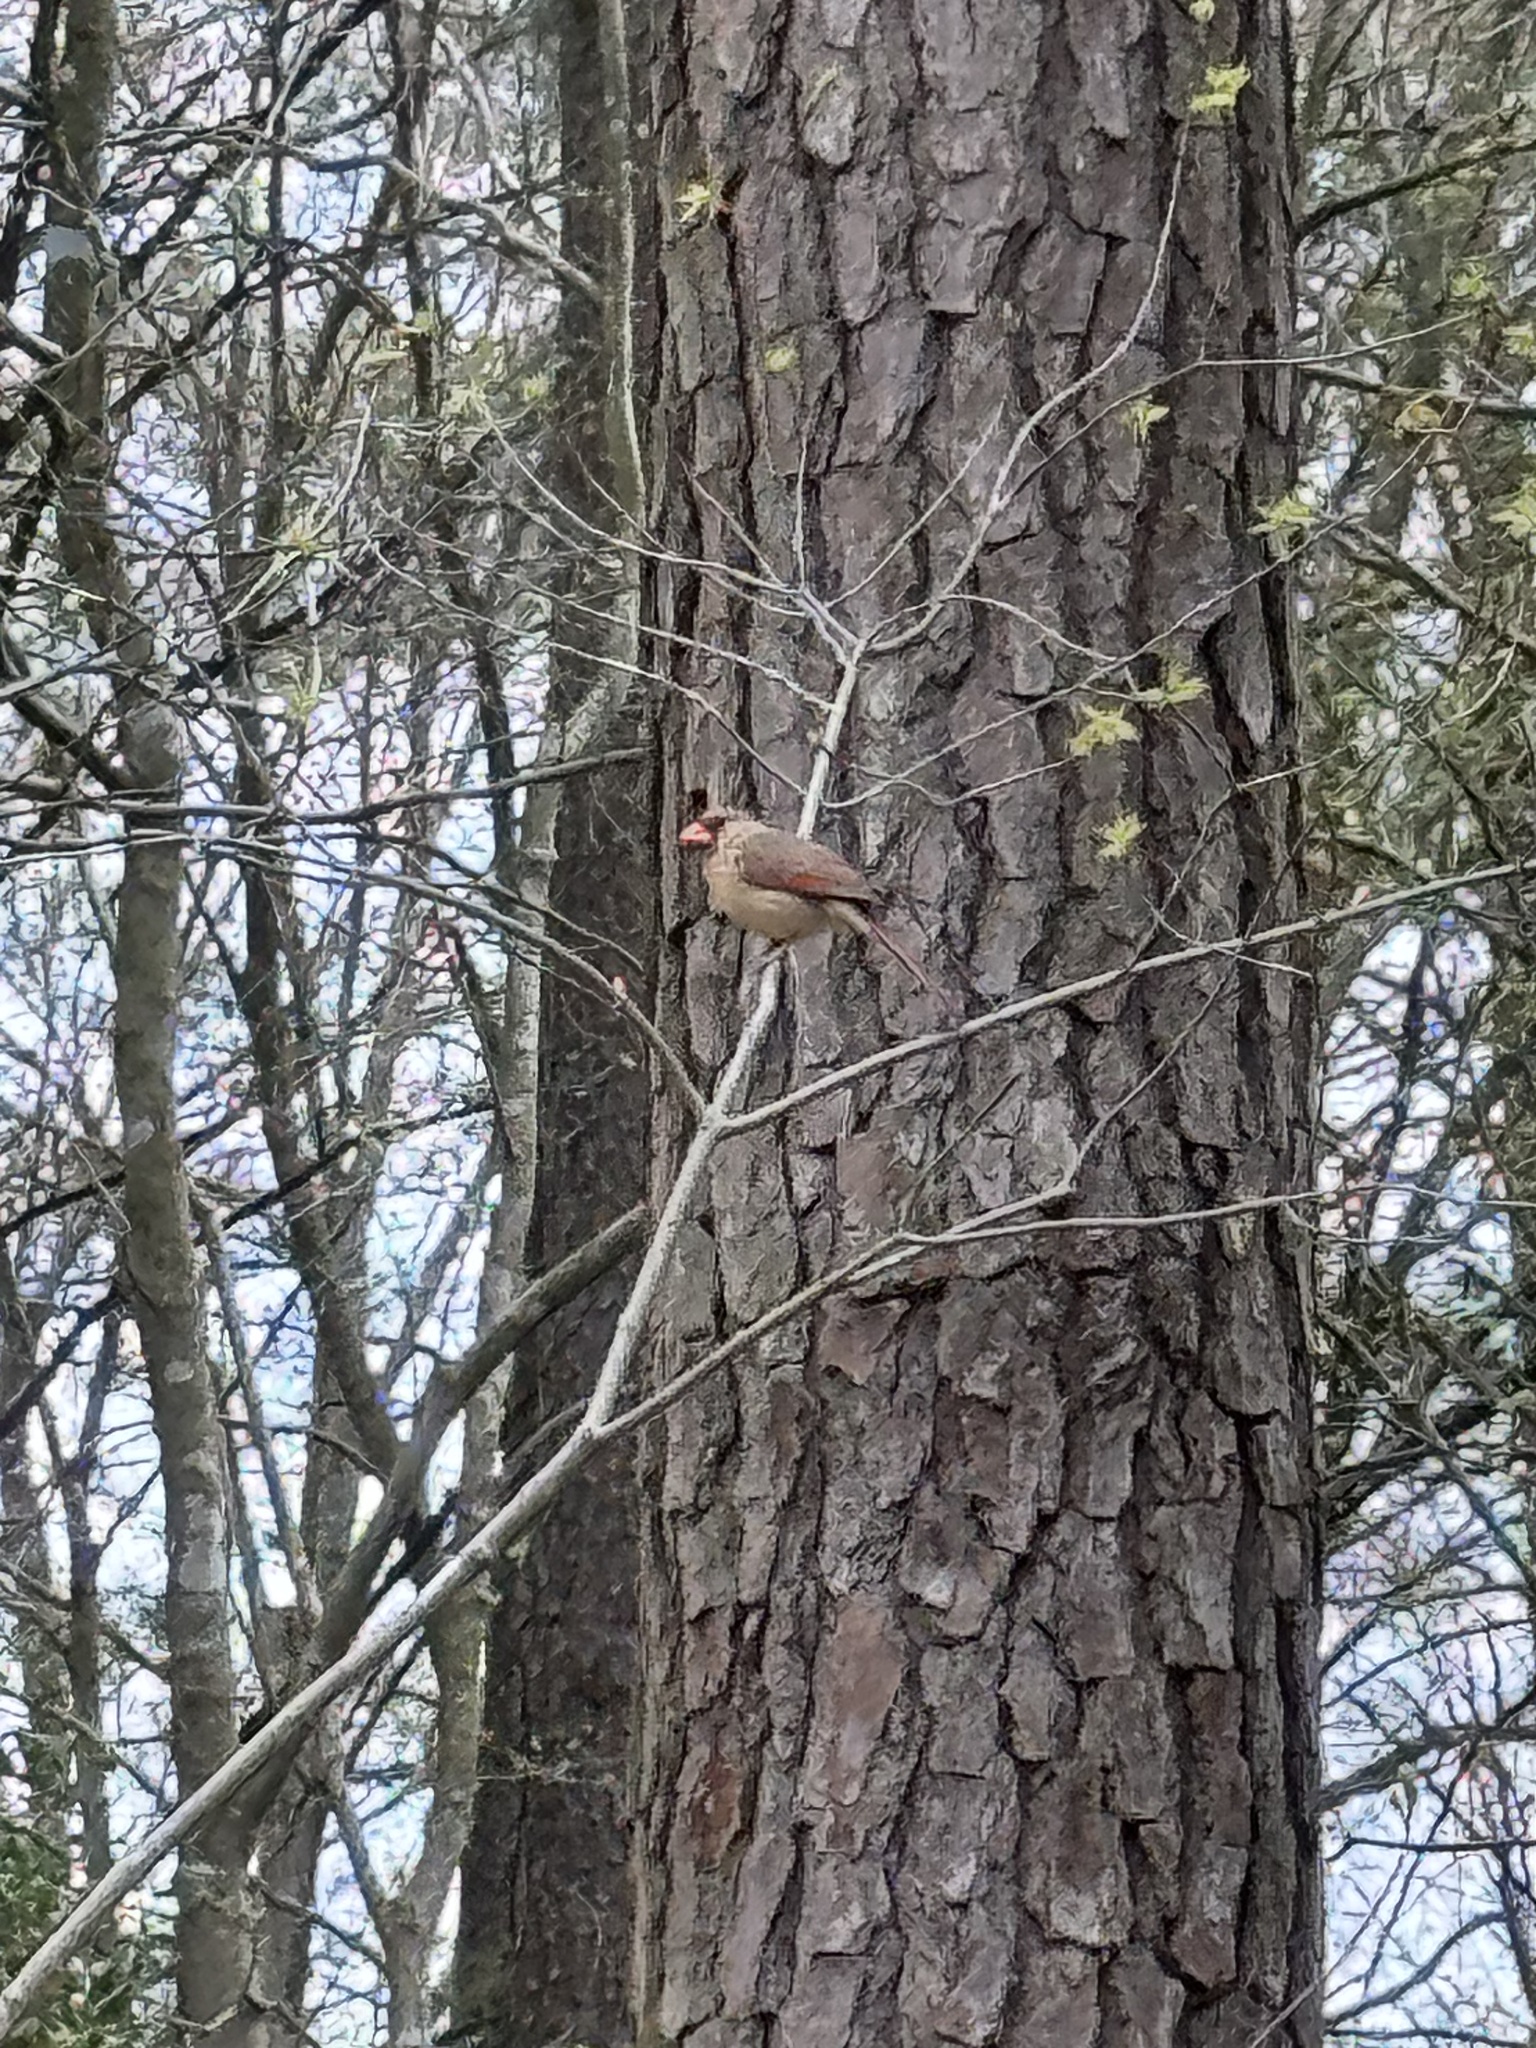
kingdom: Animalia
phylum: Chordata
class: Aves
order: Passeriformes
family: Cardinalidae
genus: Cardinalis
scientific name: Cardinalis cardinalis
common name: Northern cardinal
